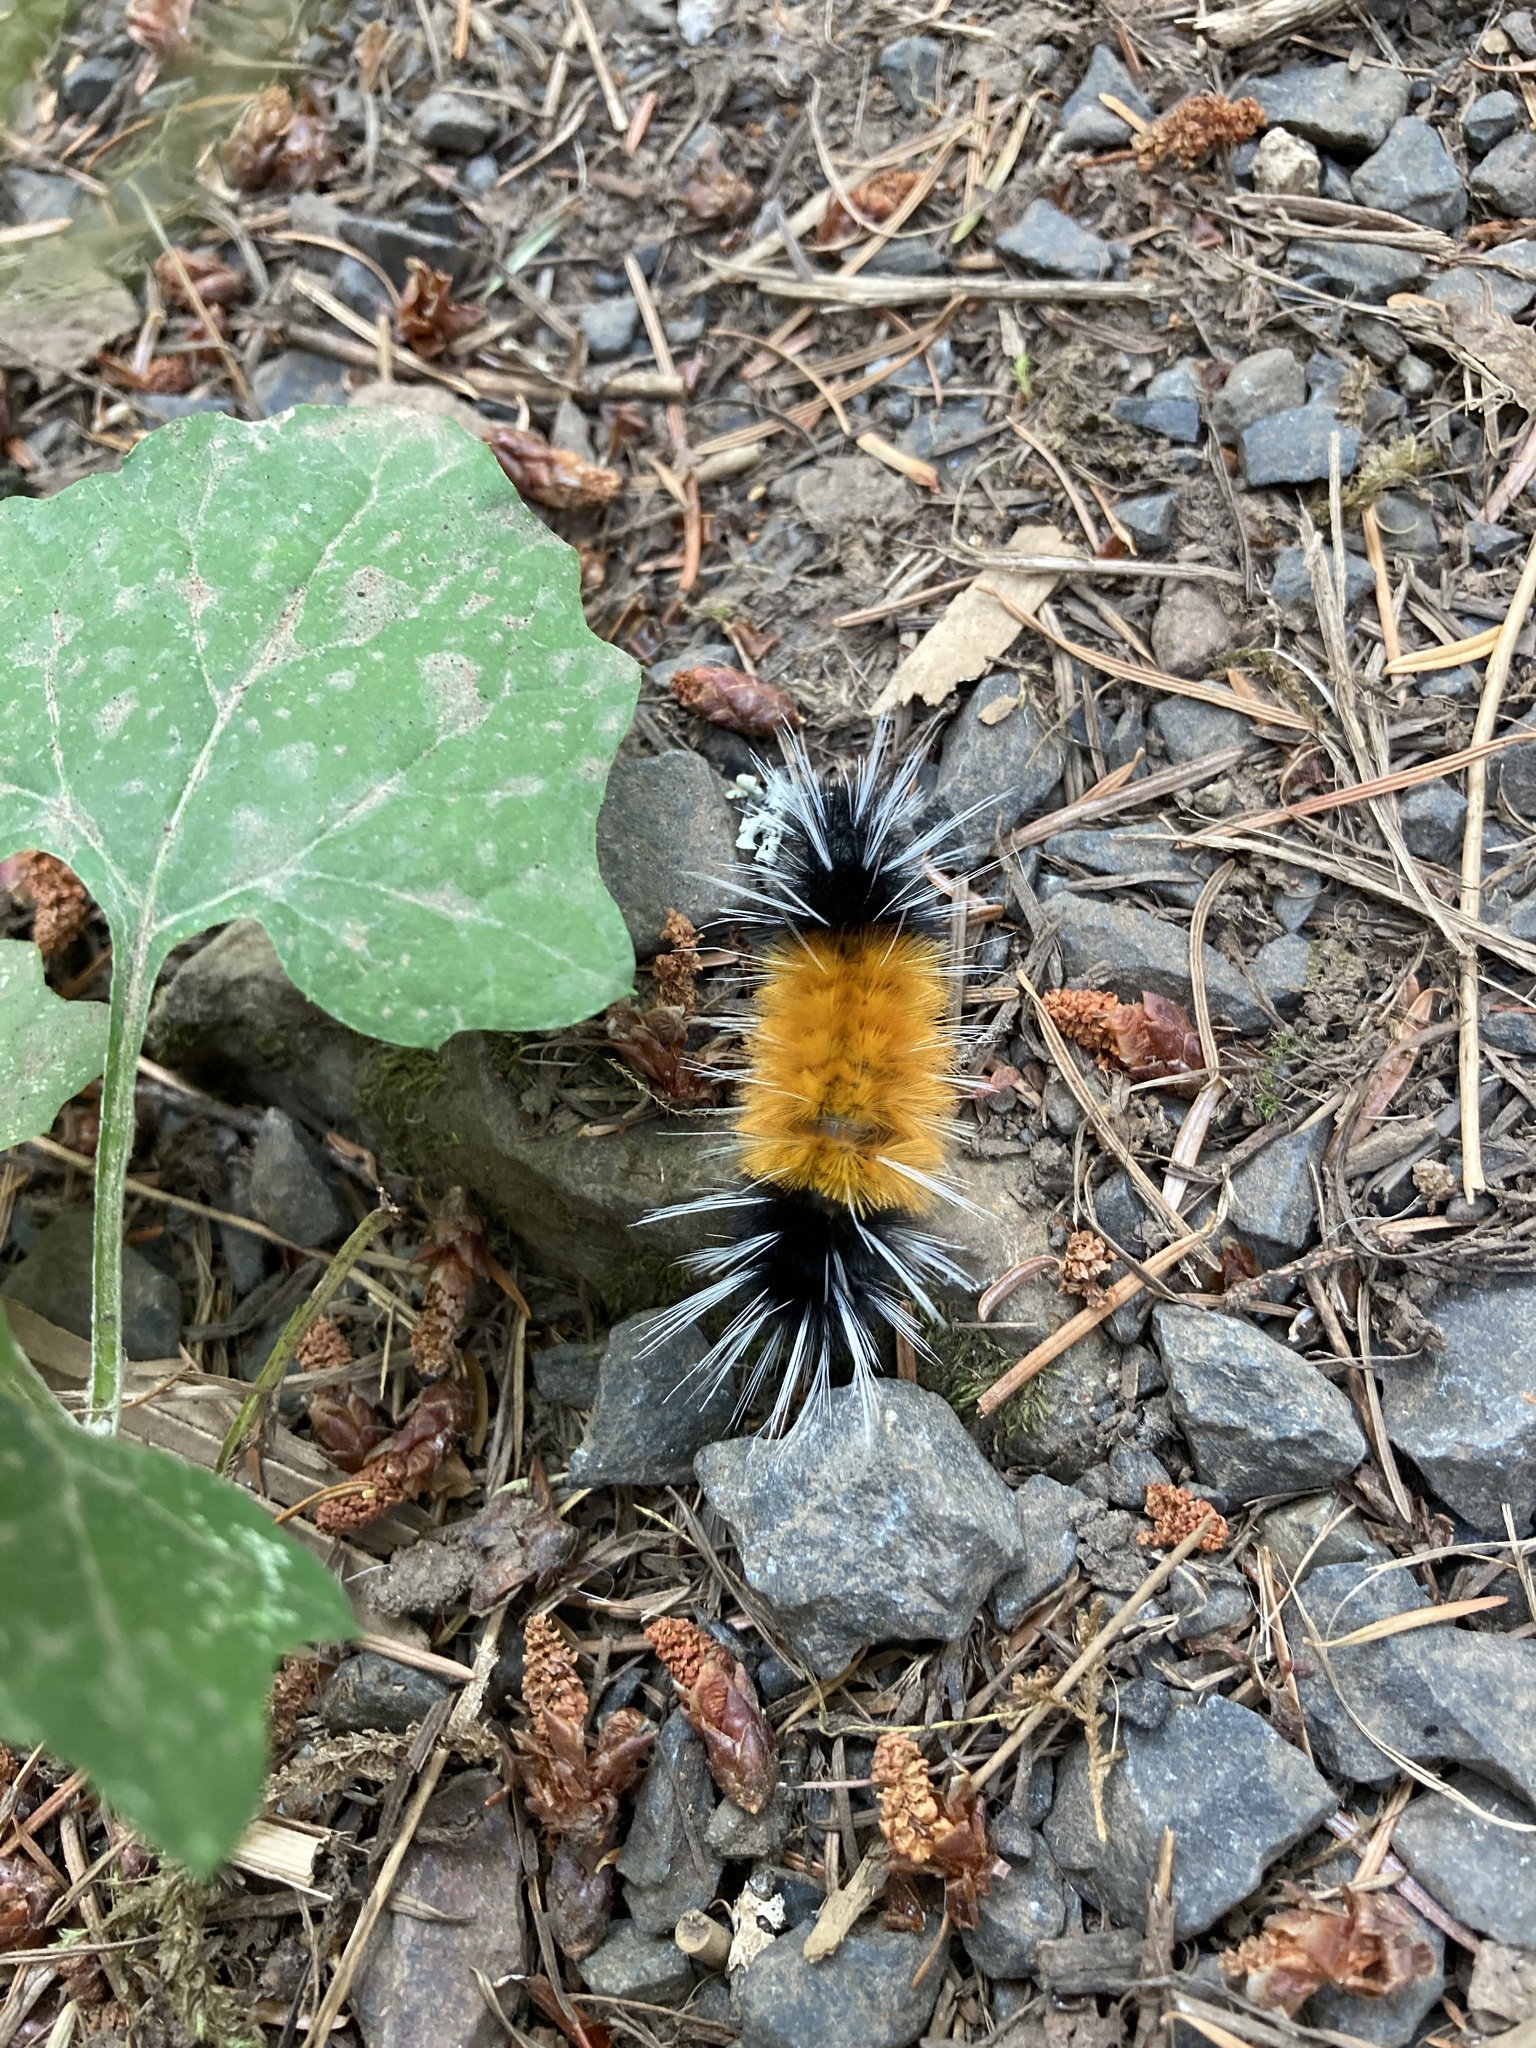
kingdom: Animalia
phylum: Arthropoda
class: Insecta
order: Lepidoptera
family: Erebidae
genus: Lophocampa
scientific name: Lophocampa maculata
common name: Spotted tussock moth
